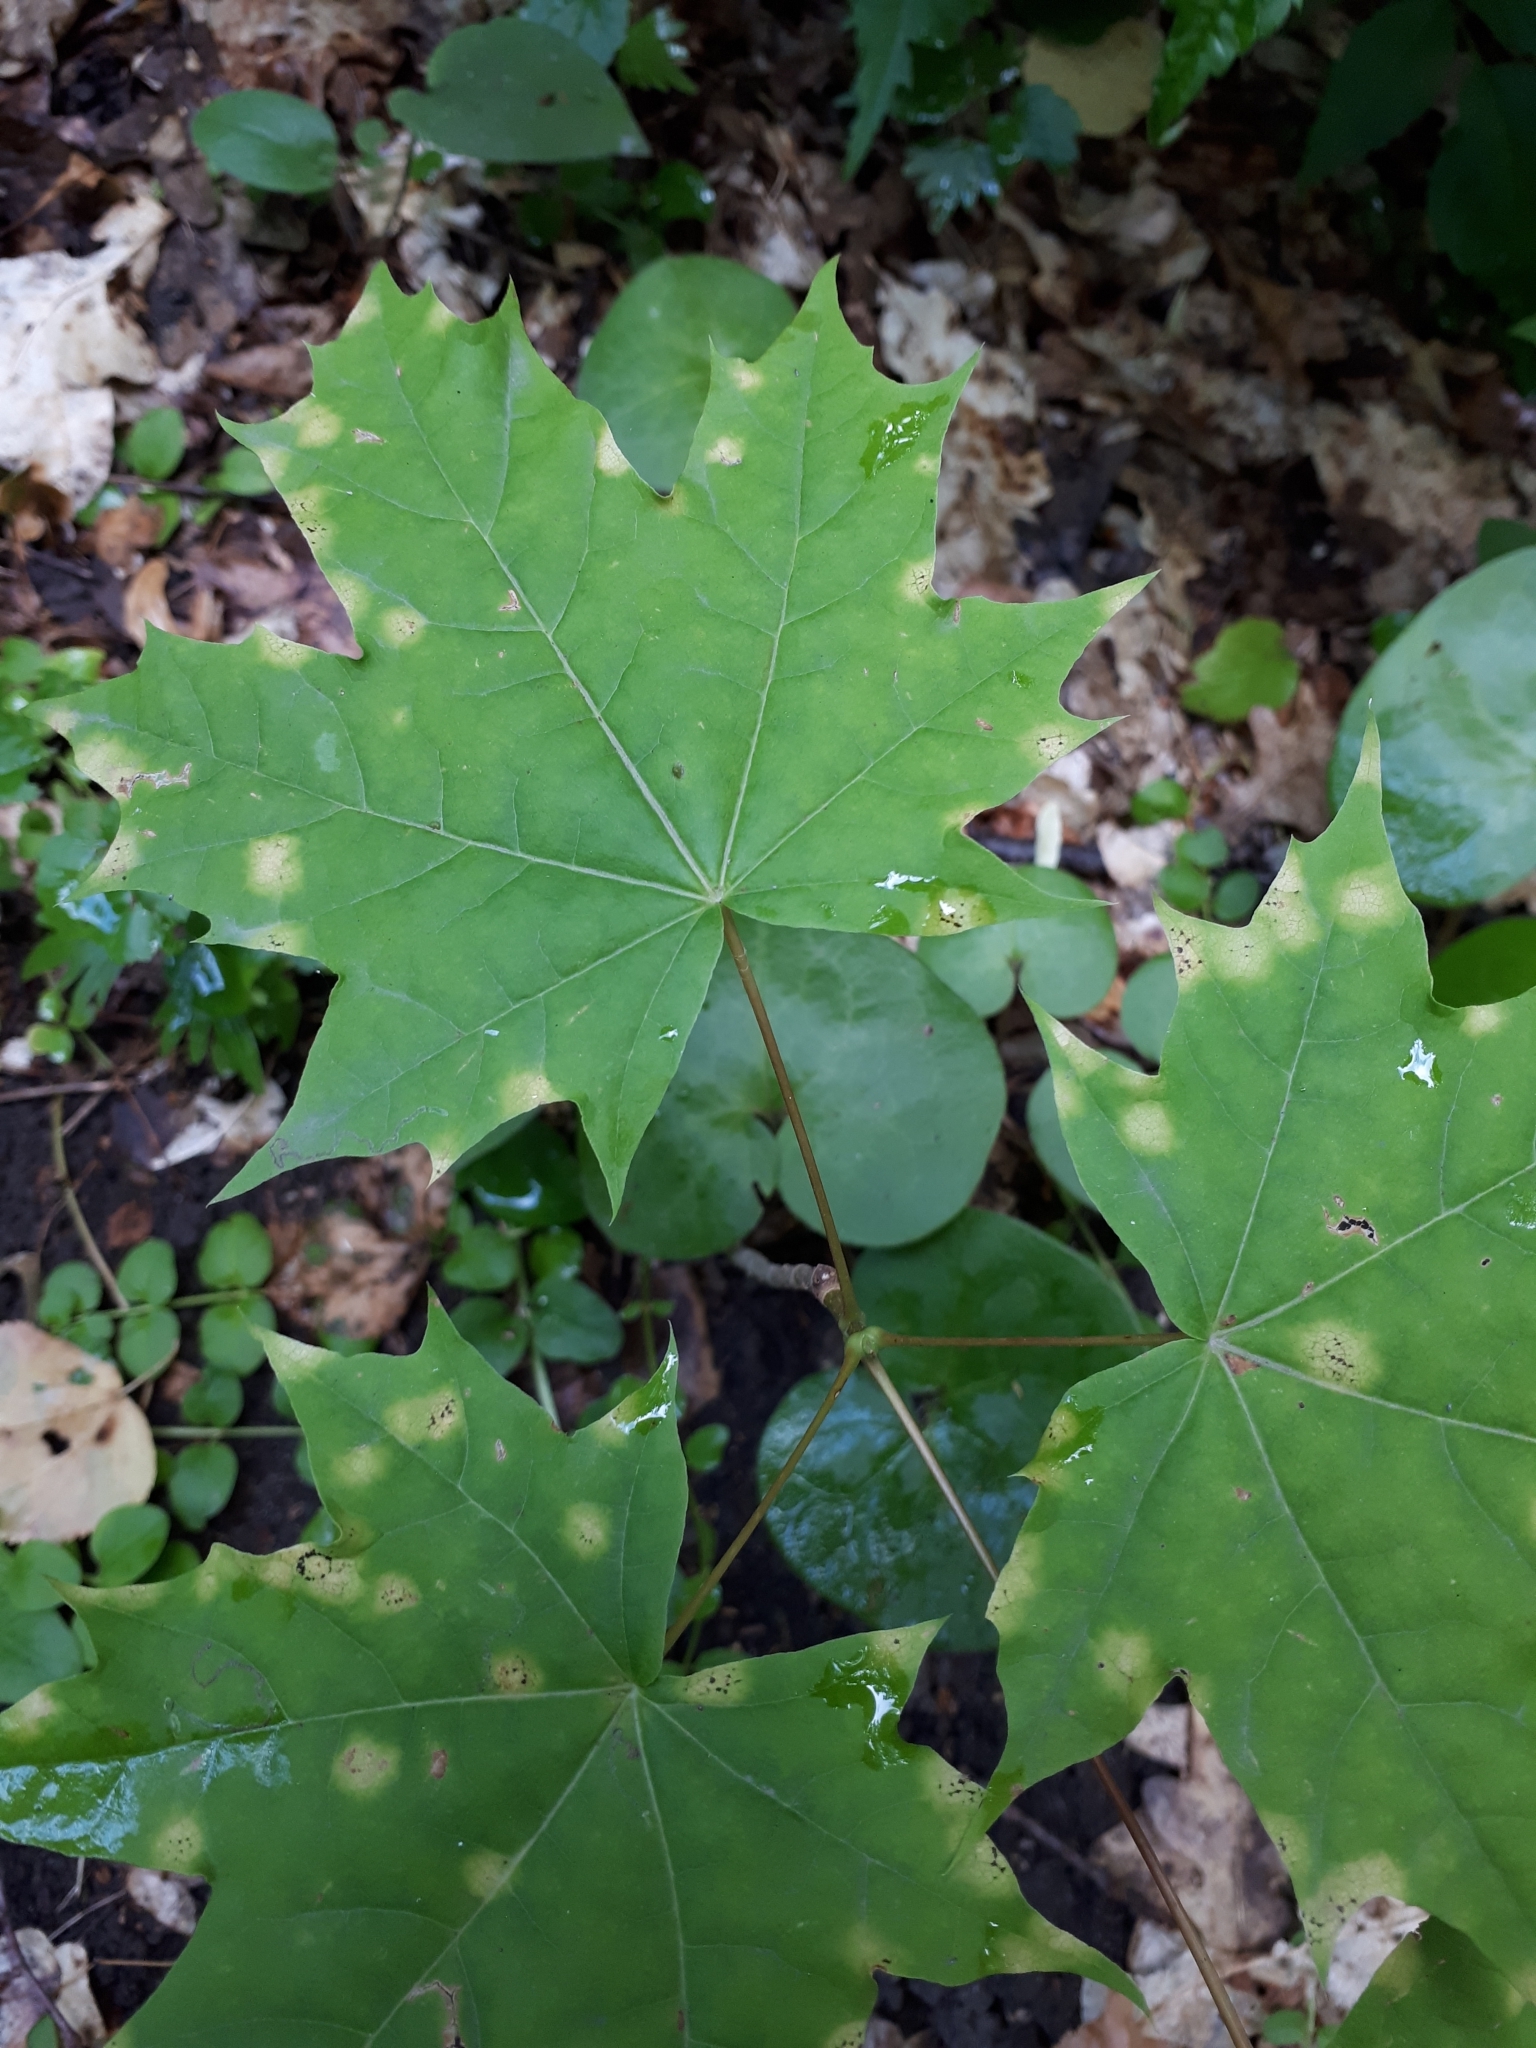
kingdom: Plantae
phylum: Tracheophyta
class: Magnoliopsida
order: Sapindales
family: Sapindaceae
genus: Acer
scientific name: Acer platanoides
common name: Norway maple
